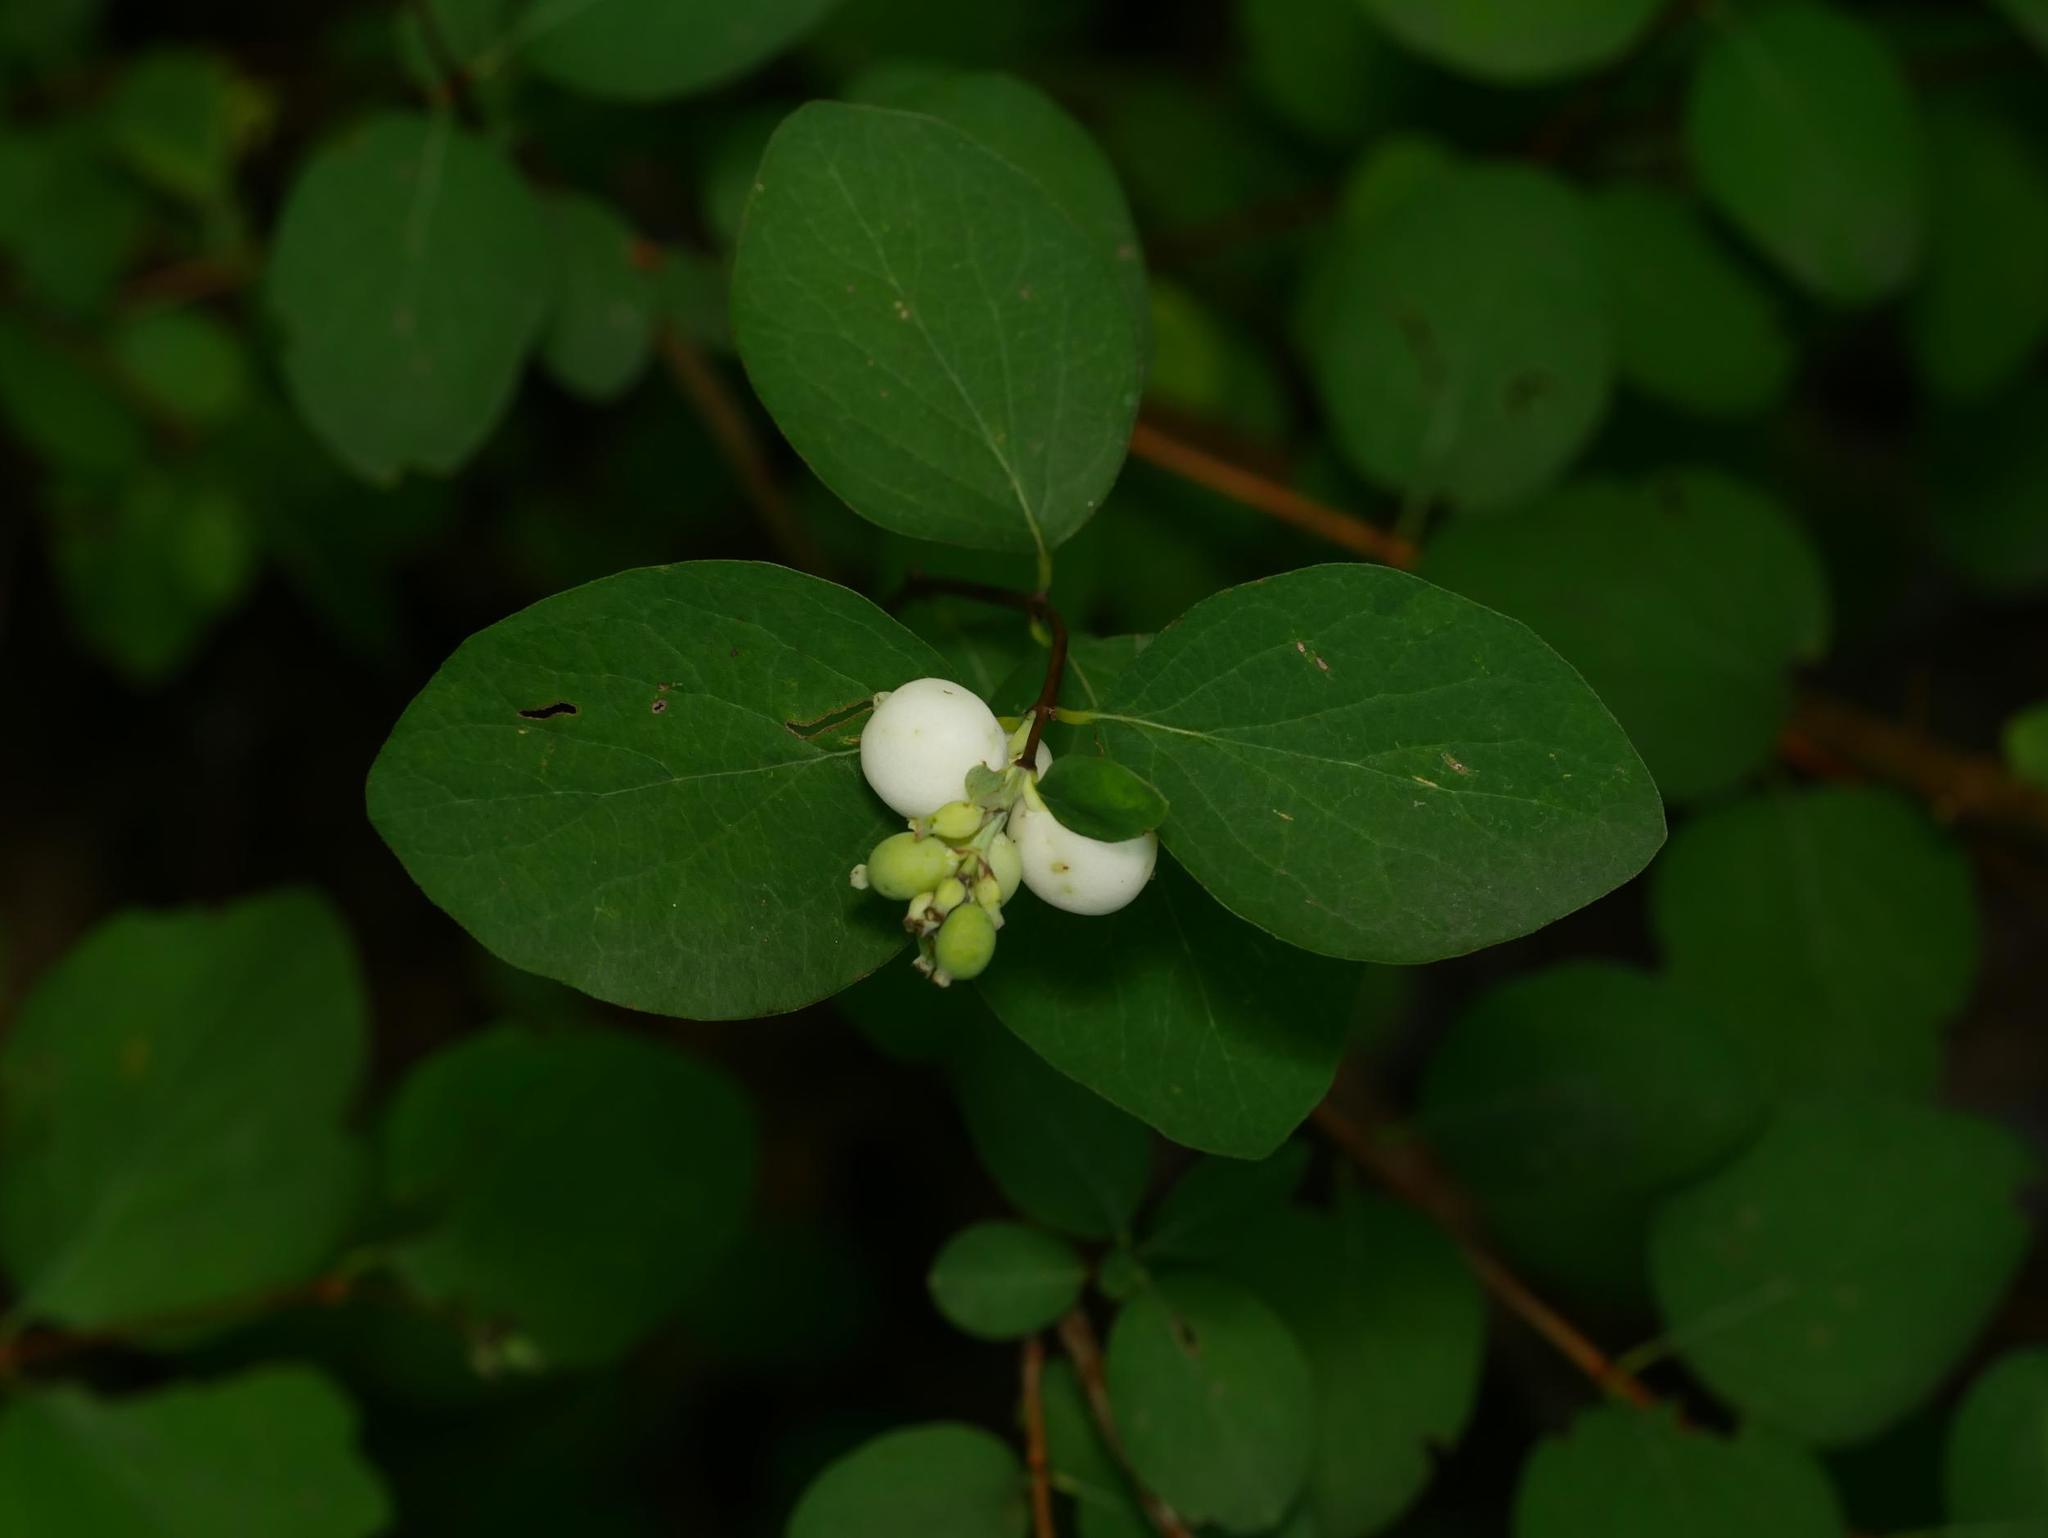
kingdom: Plantae
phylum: Tracheophyta
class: Magnoliopsida
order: Dipsacales
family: Caprifoliaceae
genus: Symphoricarpos
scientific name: Symphoricarpos albus
